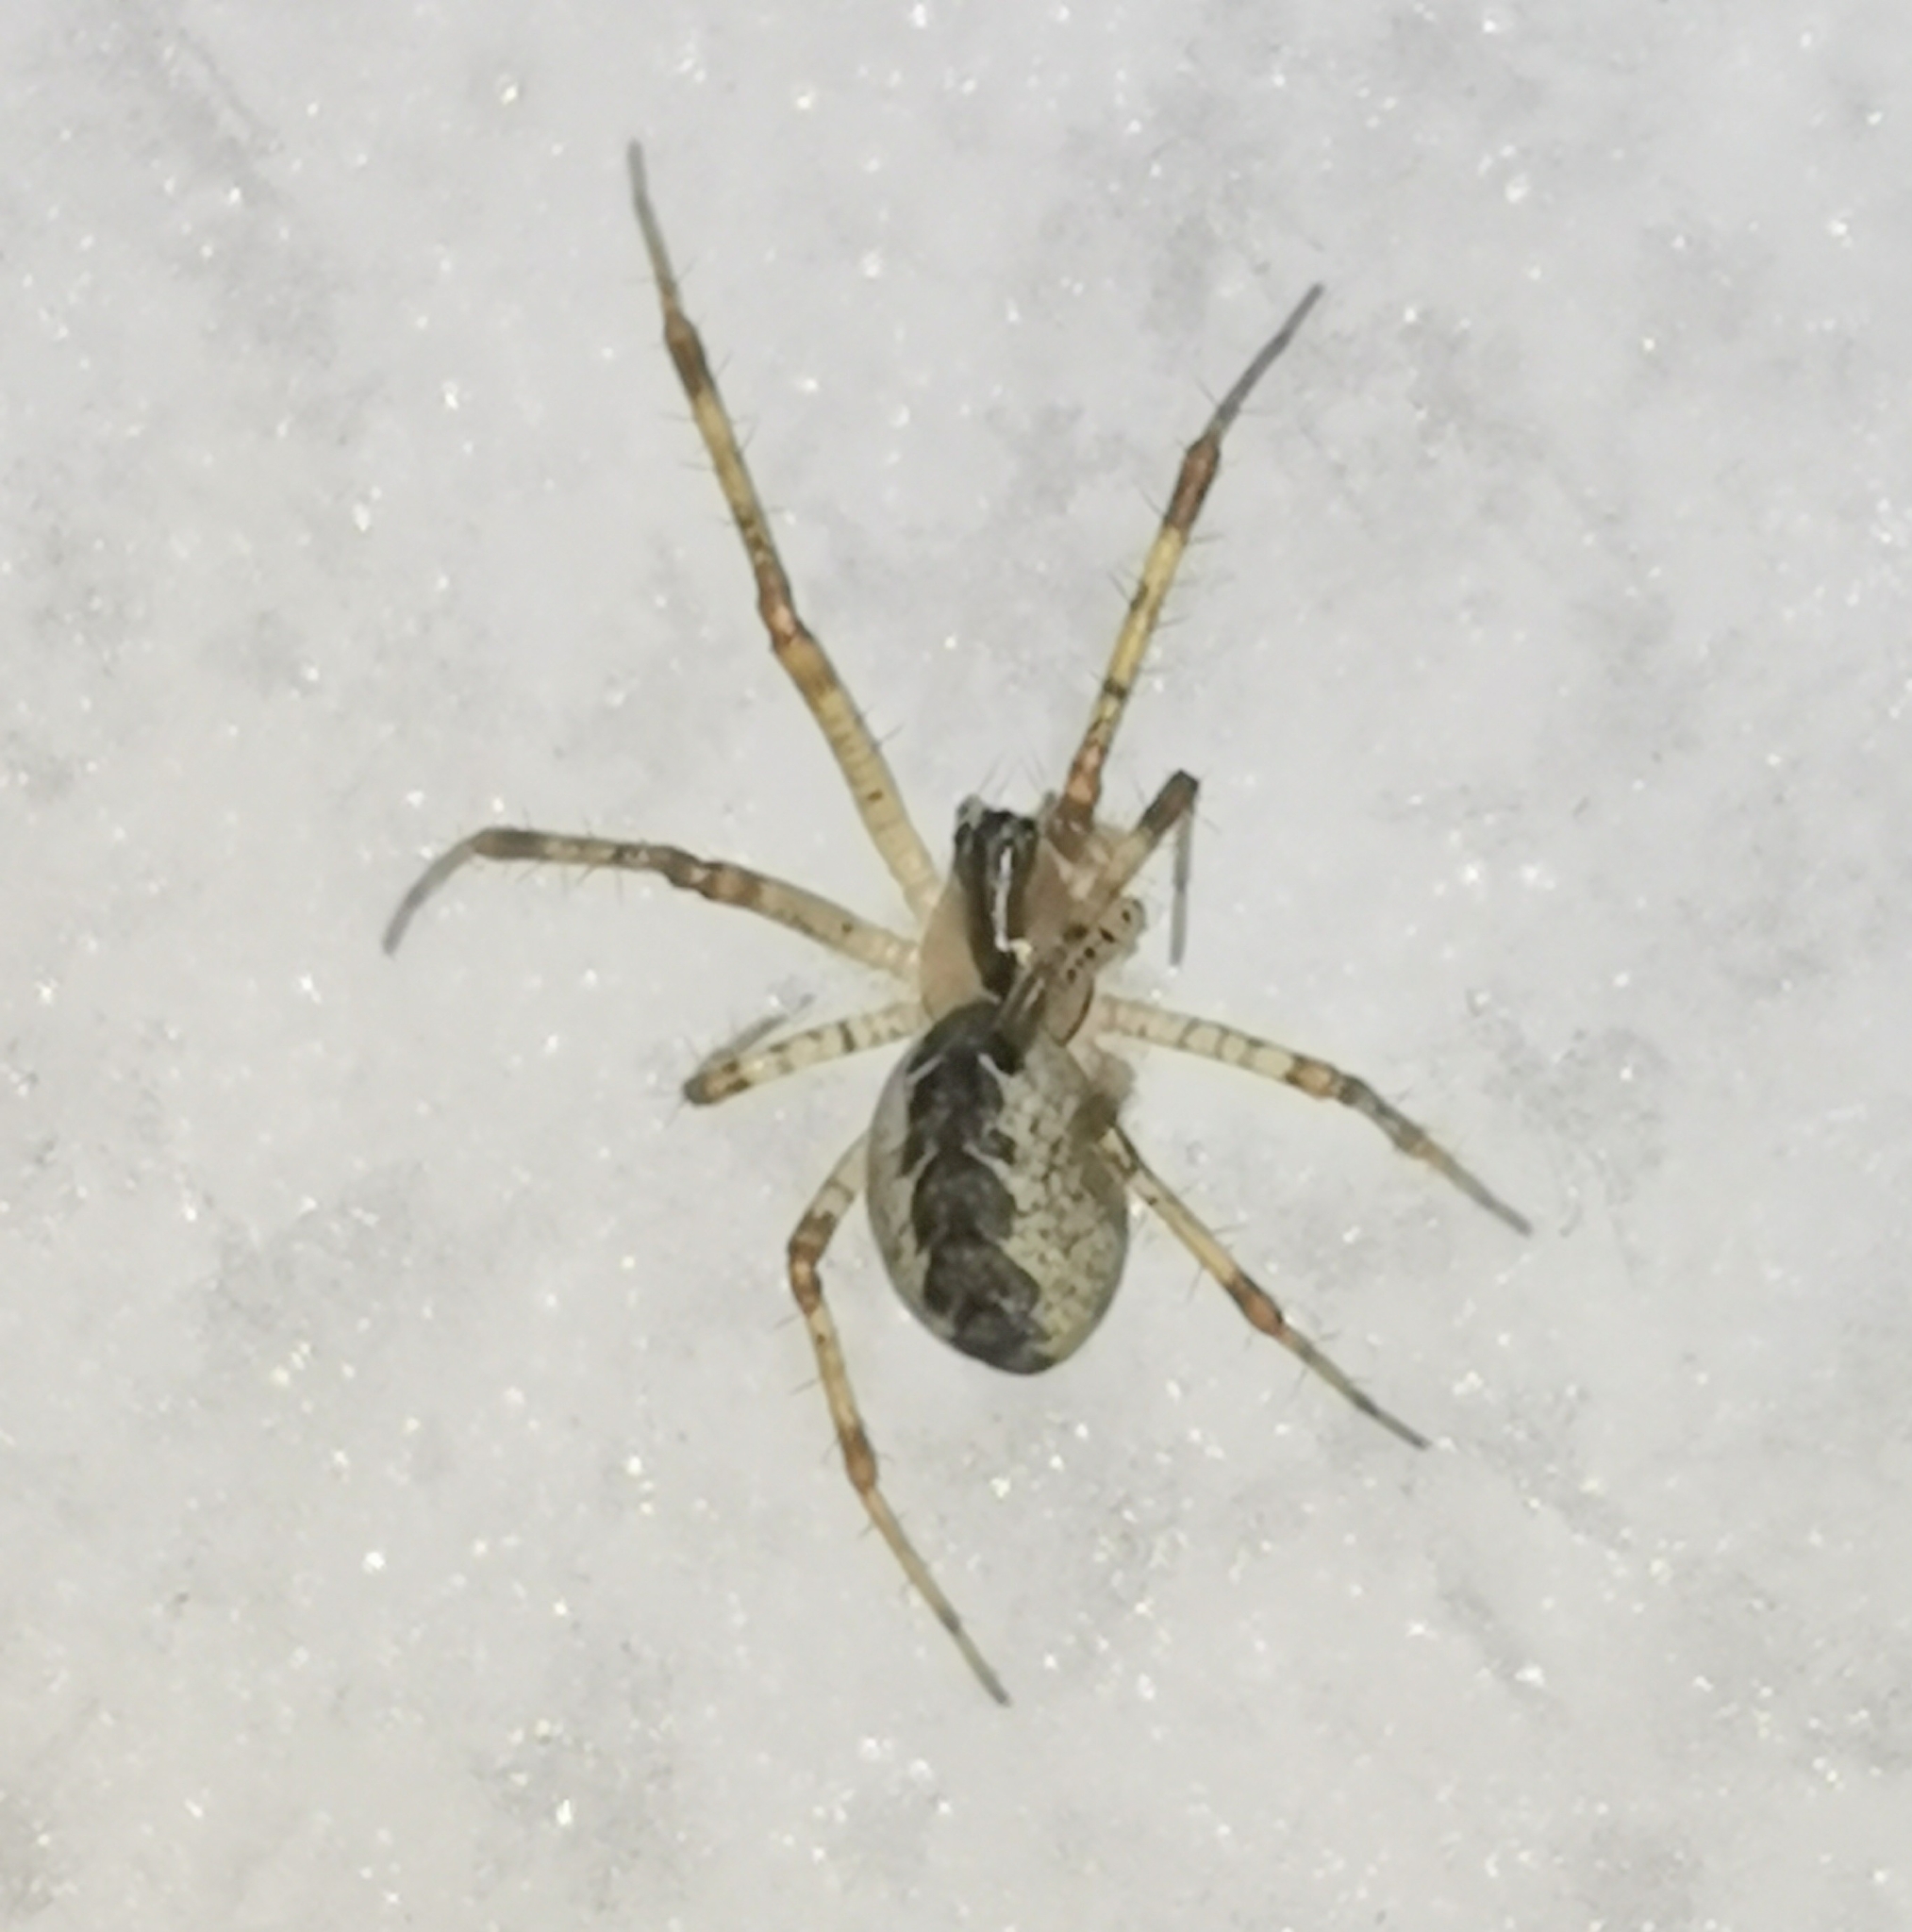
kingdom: Animalia
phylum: Arthropoda
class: Arachnida
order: Araneae
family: Linyphiidae
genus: Pityohyphantes
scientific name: Pityohyphantes phrygianus
